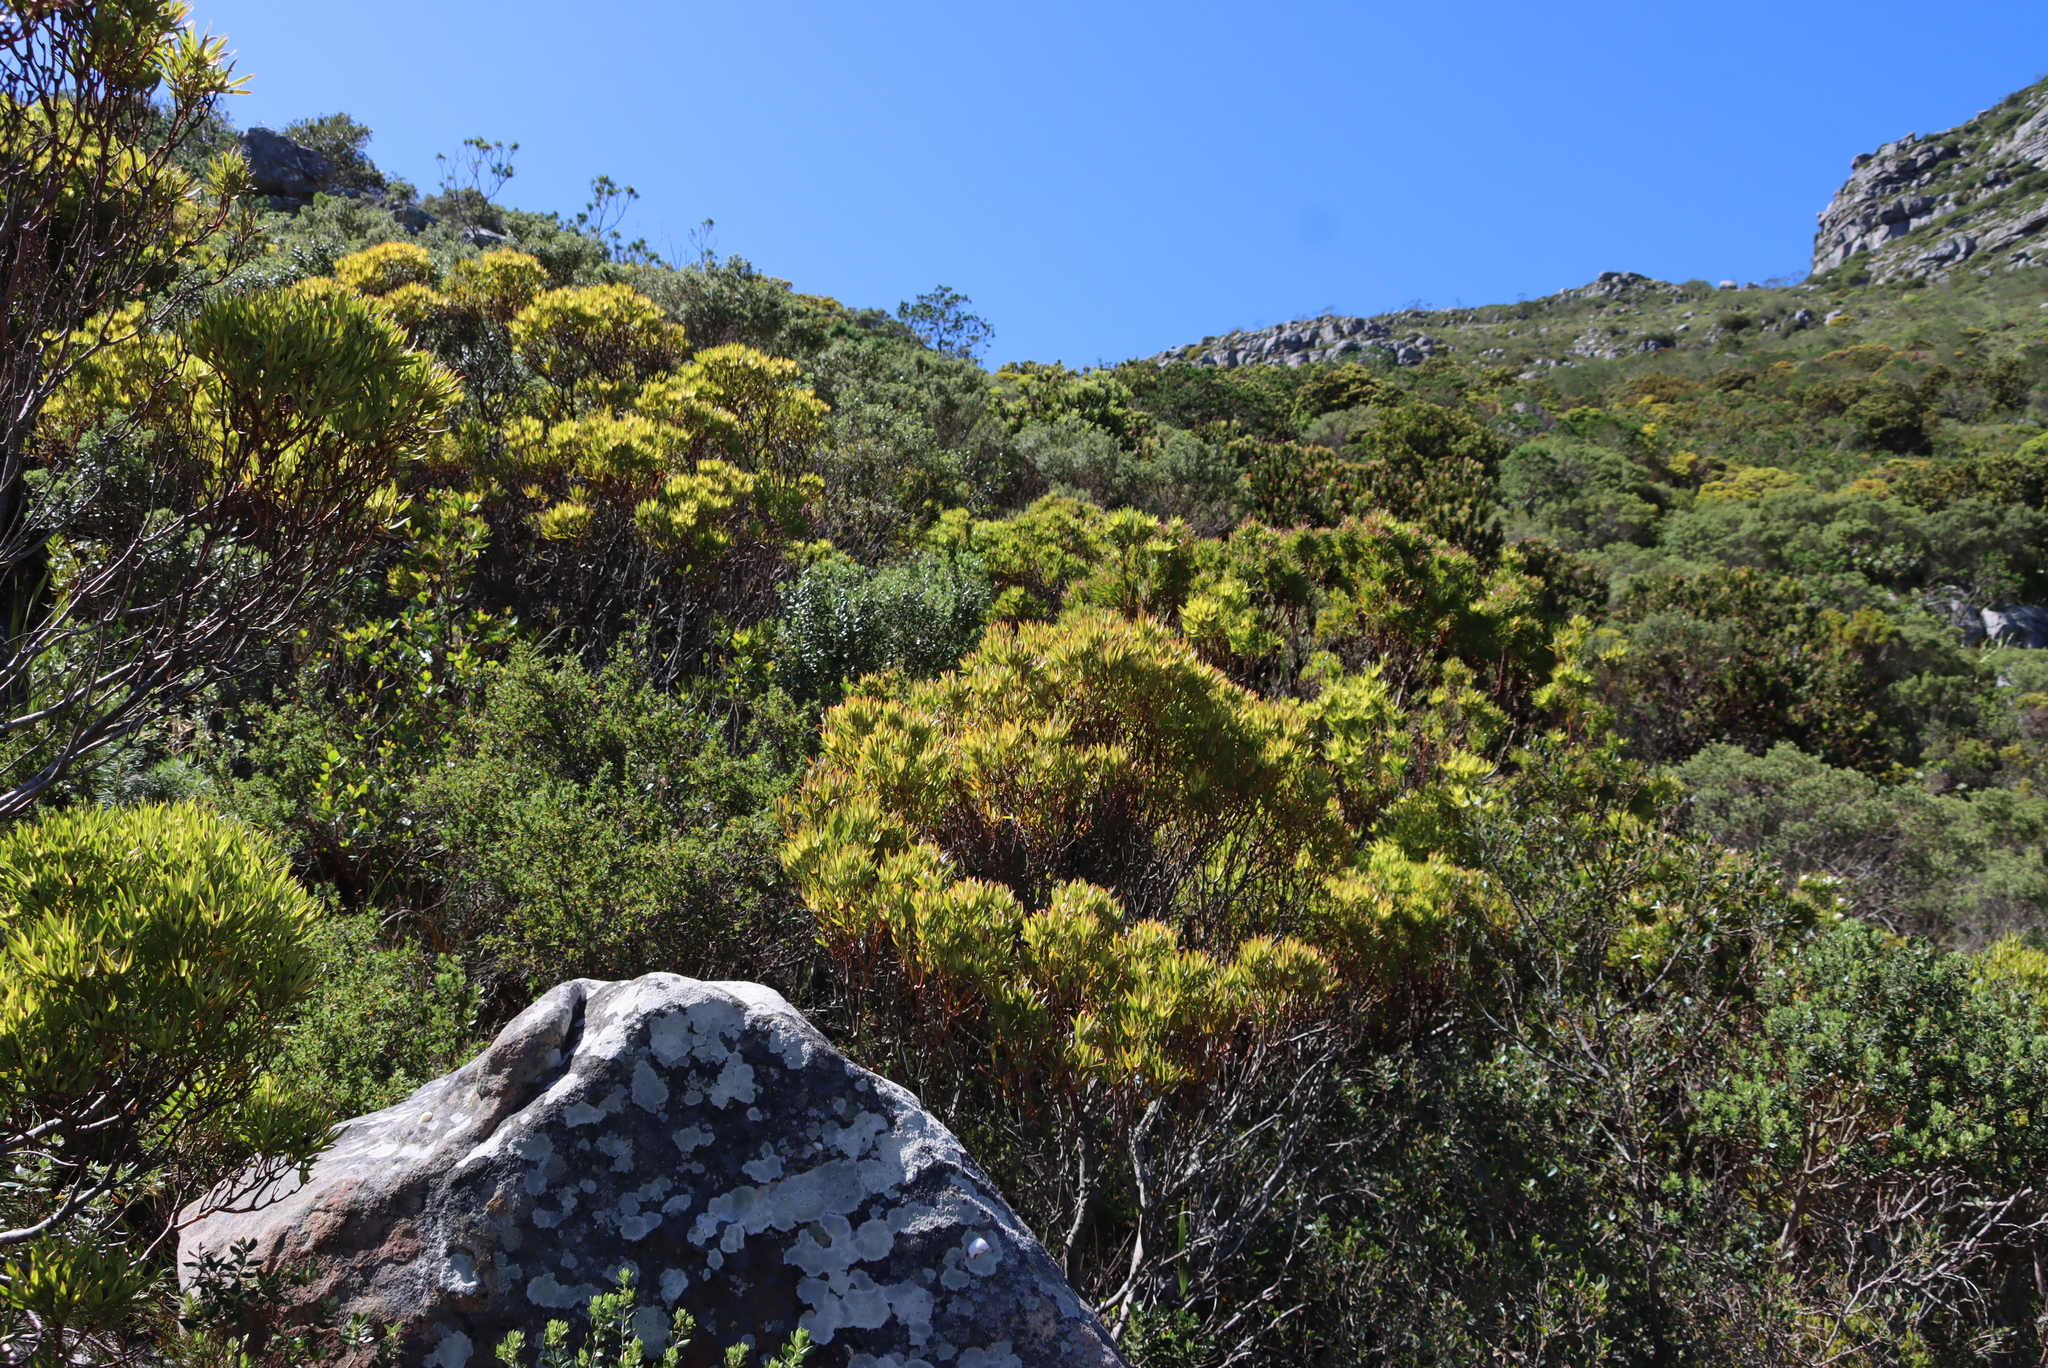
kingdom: Plantae
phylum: Tracheophyta
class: Magnoliopsida
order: Proteales
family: Proteaceae
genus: Leucadendron
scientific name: Leucadendron xanthoconus
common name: Sickle-leaf conebush
